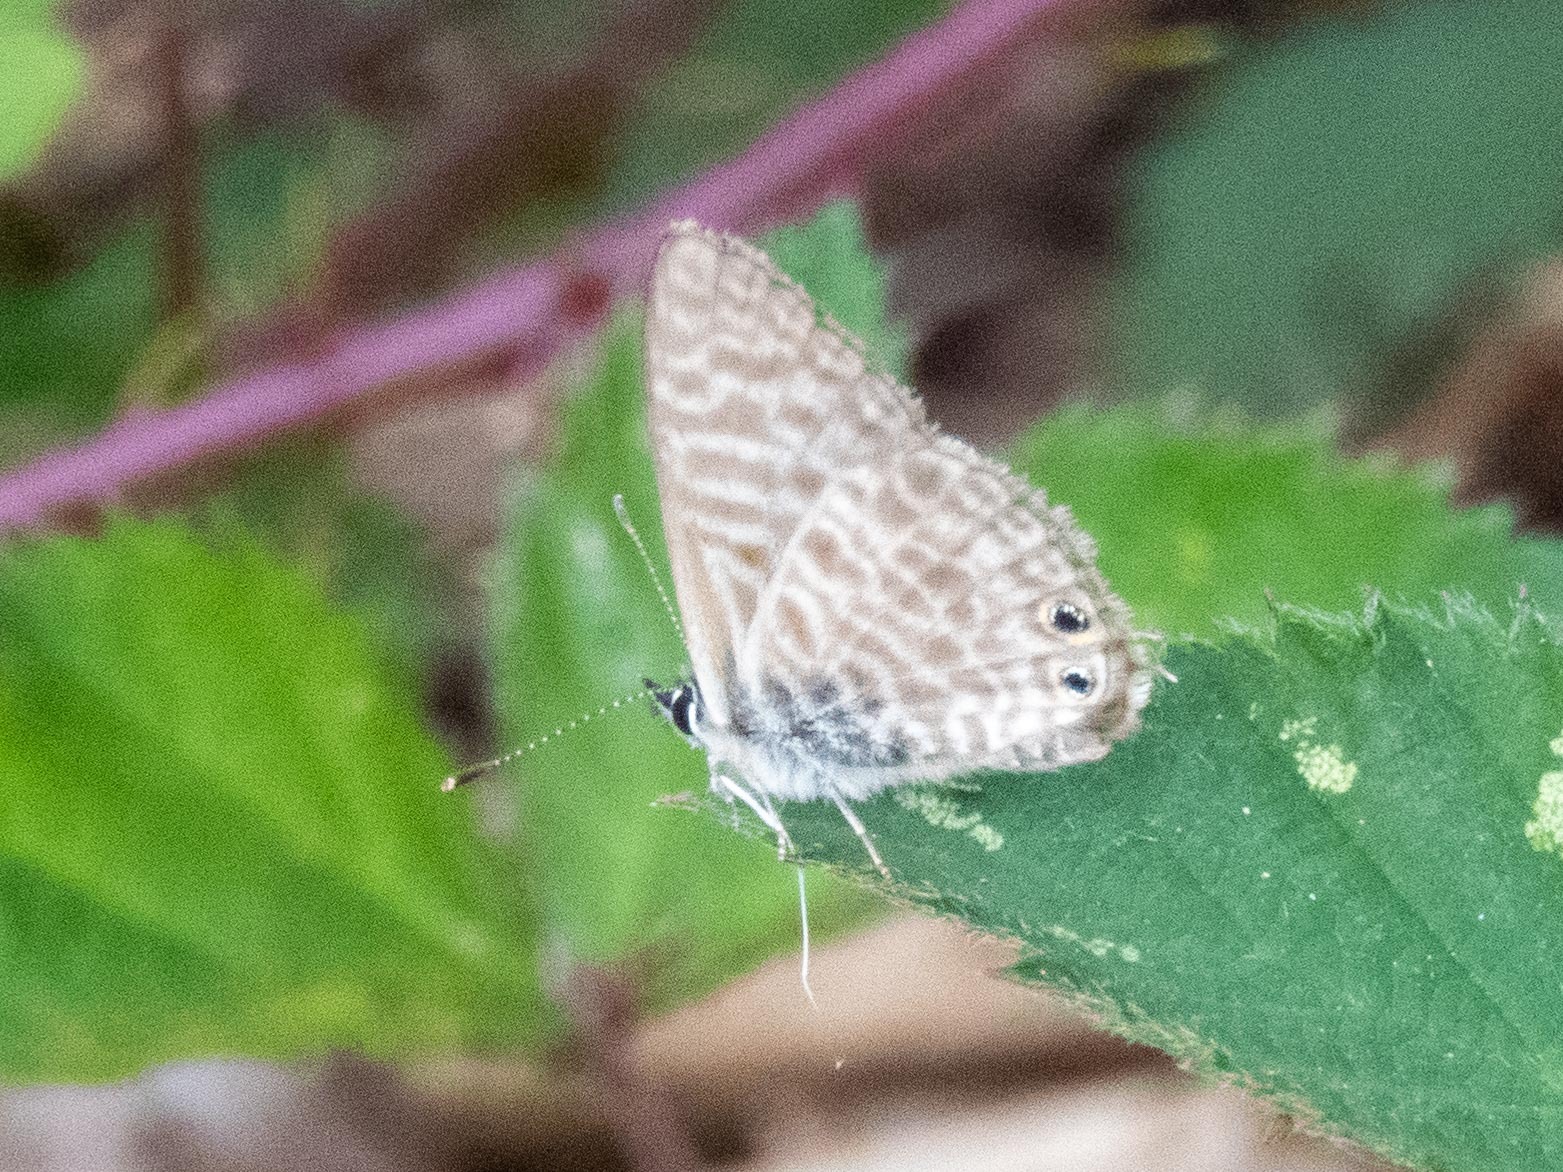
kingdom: Animalia
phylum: Arthropoda
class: Insecta
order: Lepidoptera
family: Lycaenidae
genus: Leptotes
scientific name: Leptotes pirithous
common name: Lang's short-tailed blue
